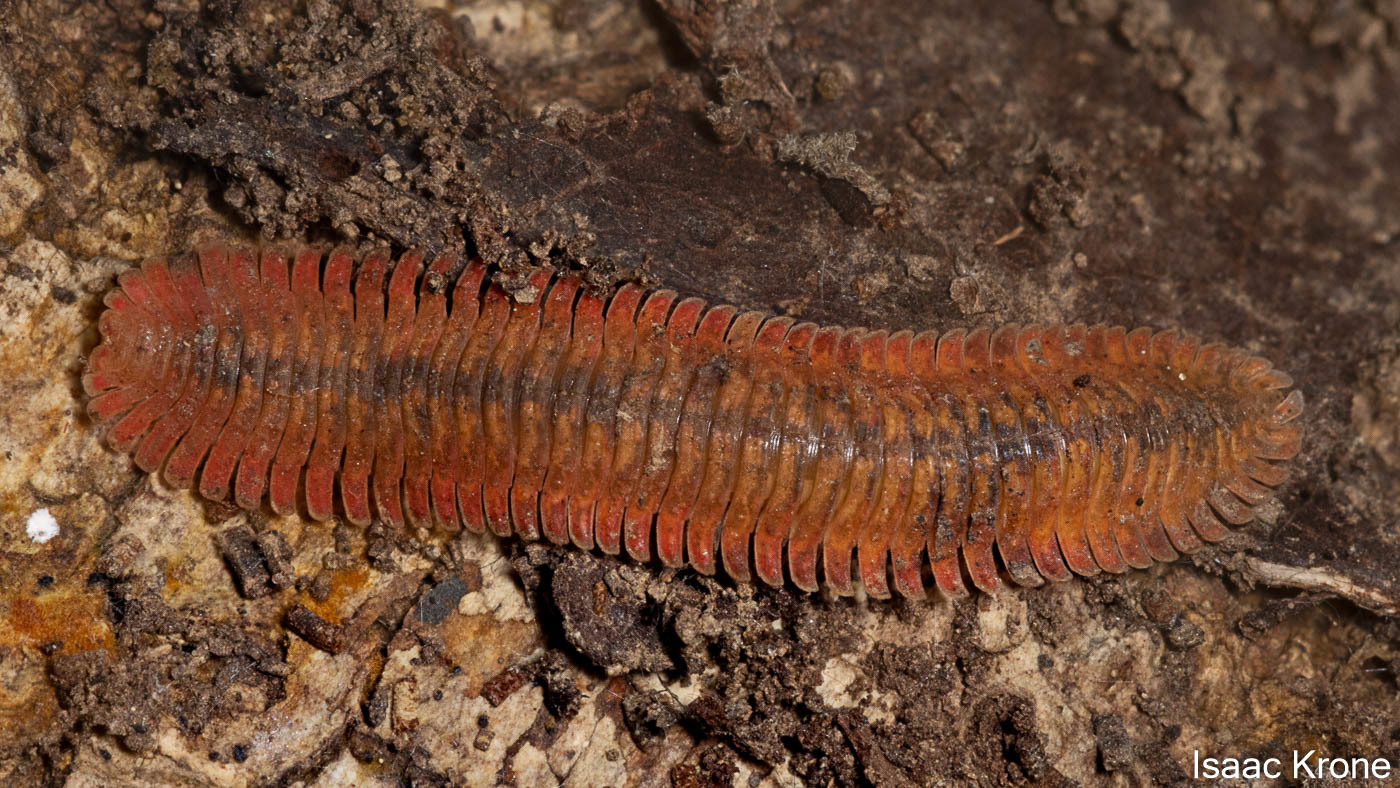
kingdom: Animalia
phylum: Arthropoda
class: Diplopoda
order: Platydesmida
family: Andrognathidae
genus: Brachycybe
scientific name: Brachycybe picta
